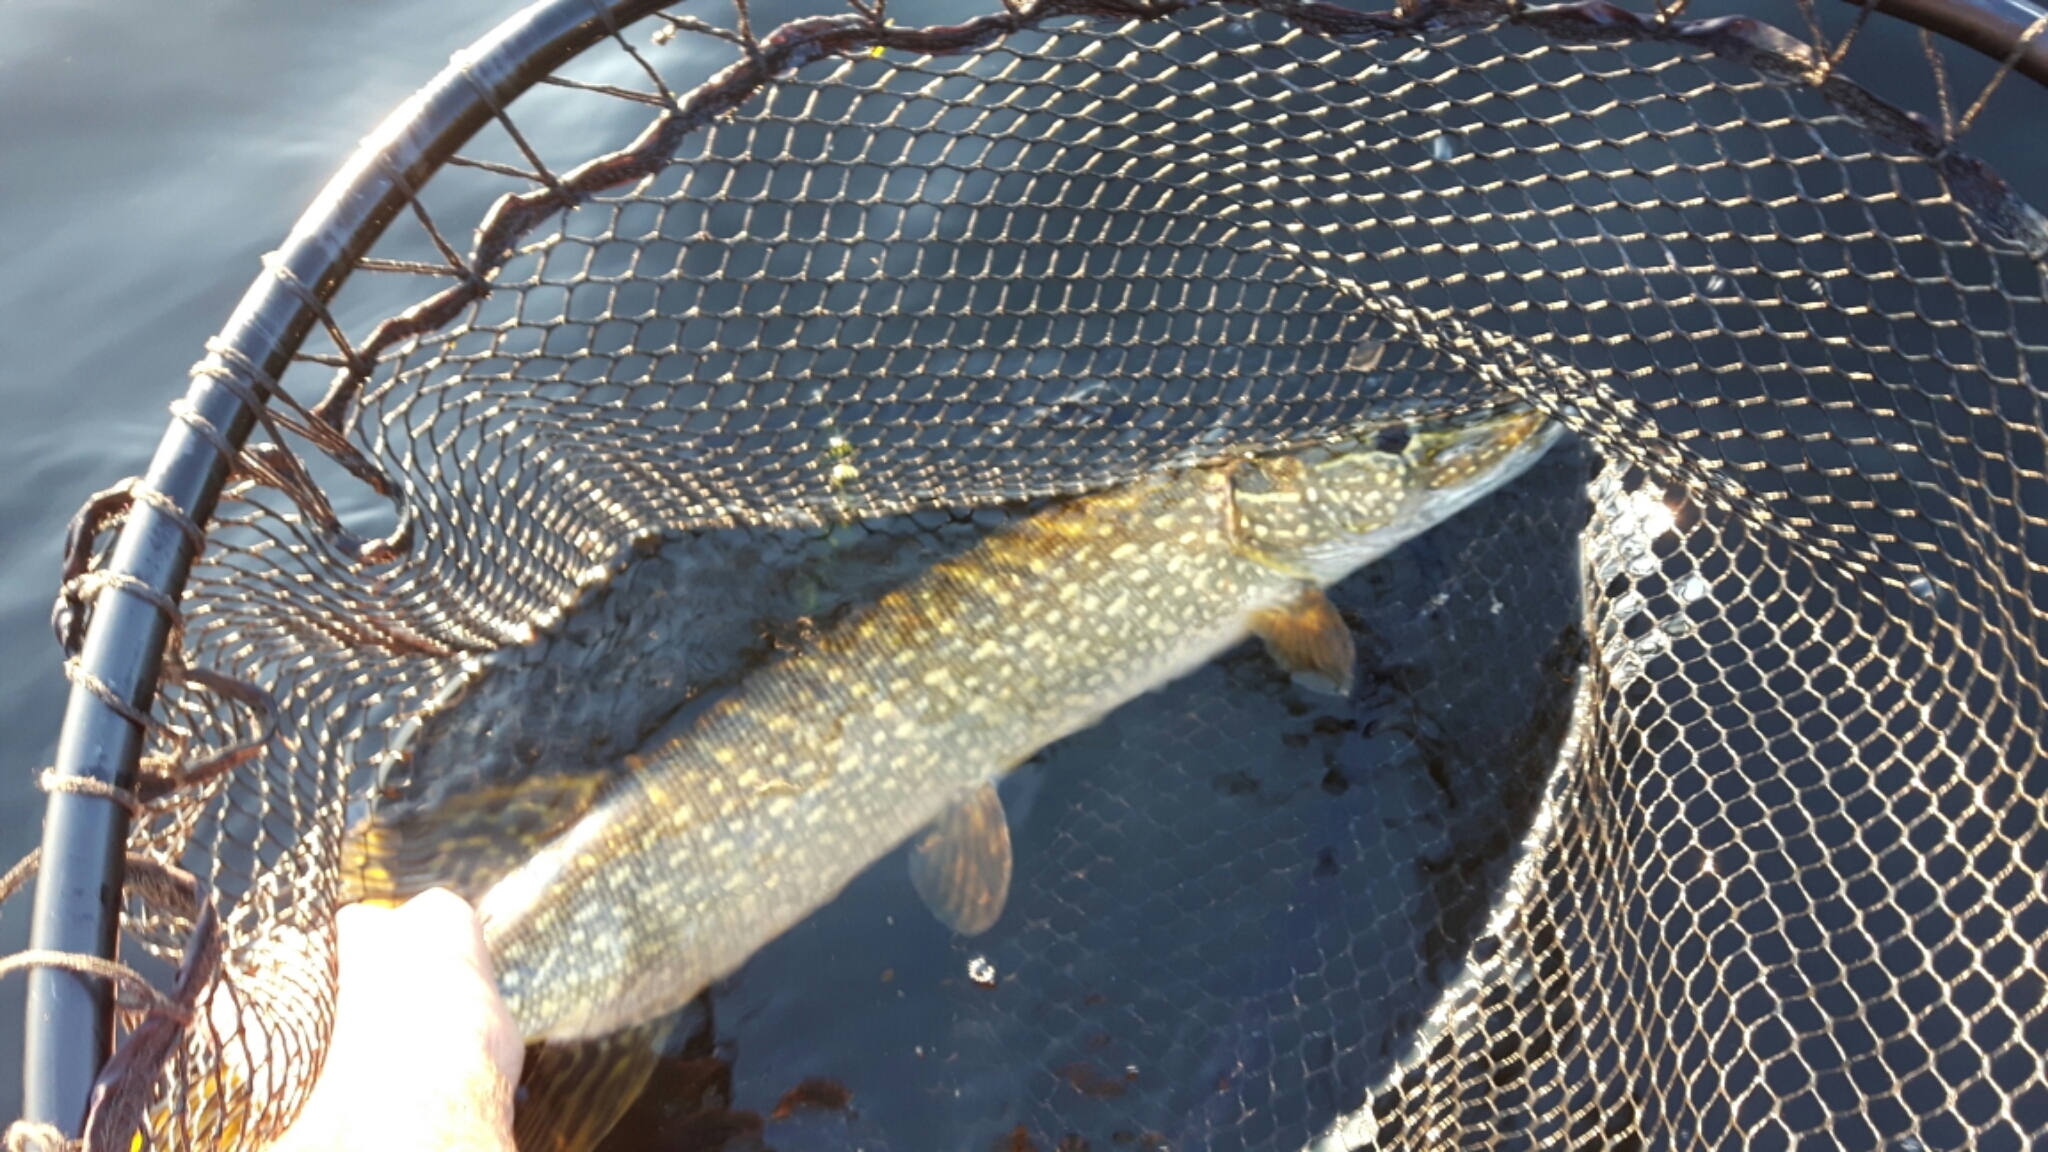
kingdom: Animalia
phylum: Chordata
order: Esociformes
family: Esocidae
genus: Esox
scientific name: Esox lucius
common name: Northern pike
